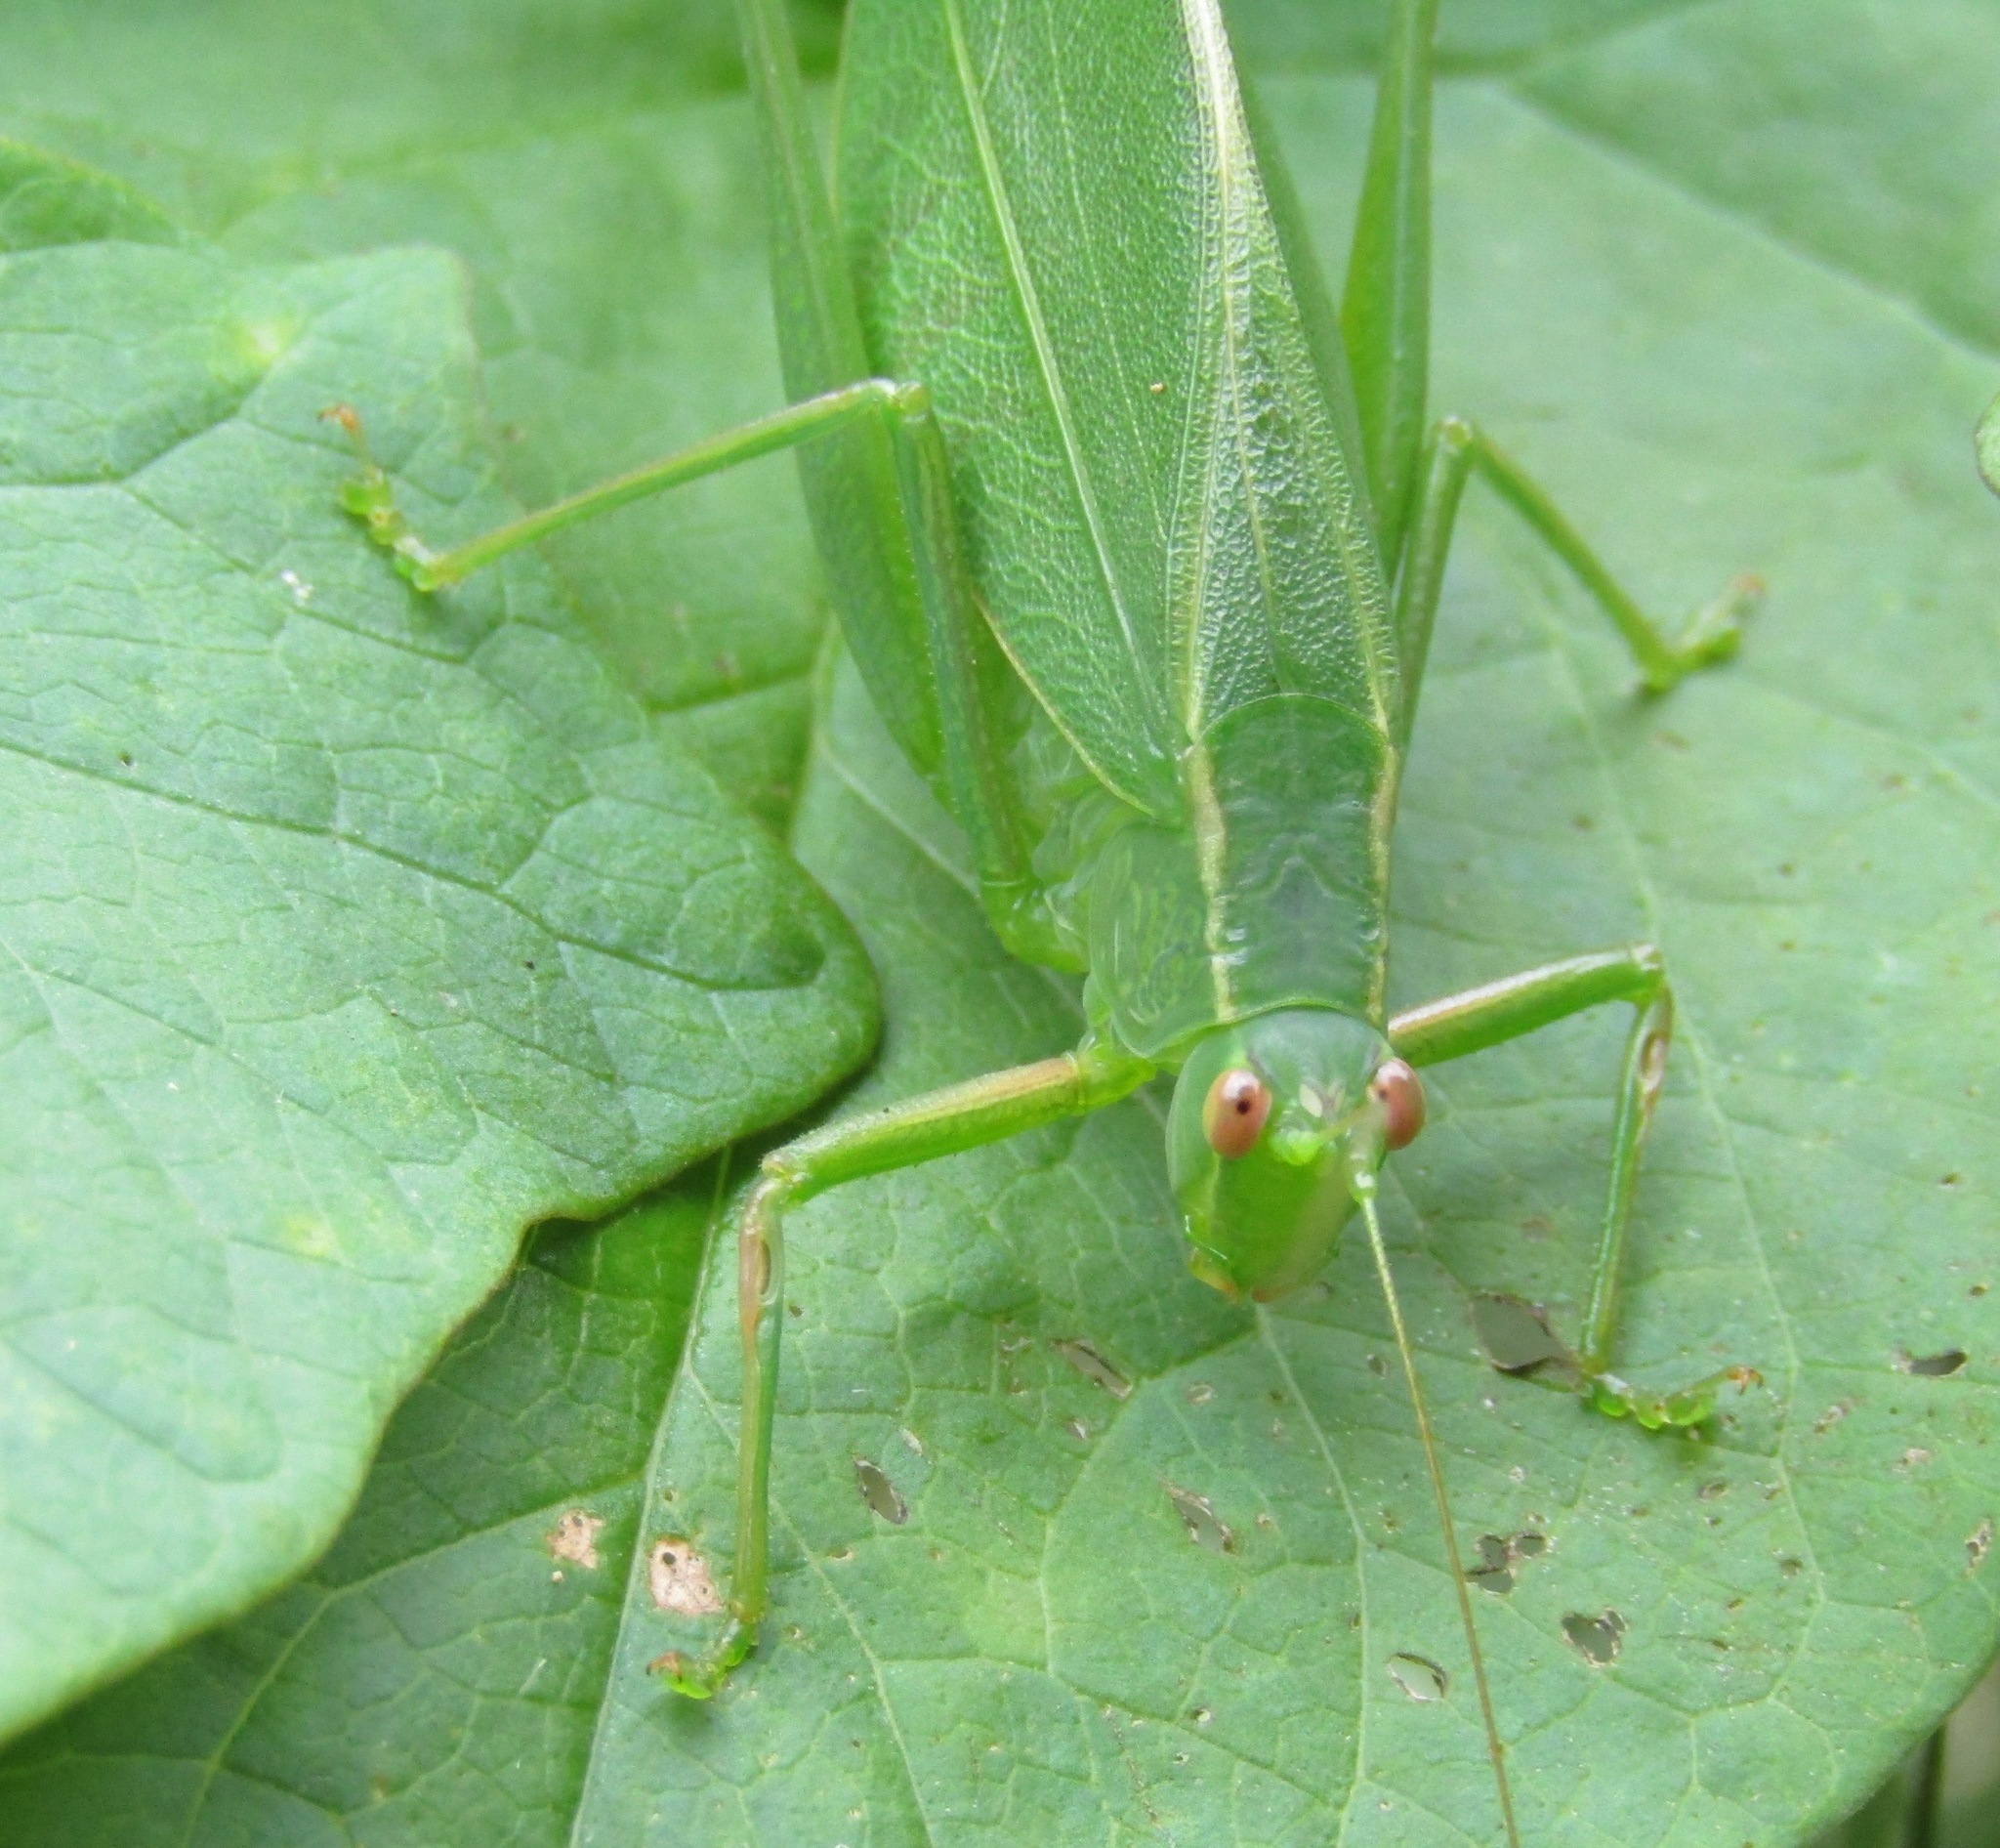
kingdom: Animalia
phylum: Arthropoda
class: Insecta
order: Orthoptera
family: Tettigoniidae
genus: Caedicia
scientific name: Caedicia simplex
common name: Common garden katydid
